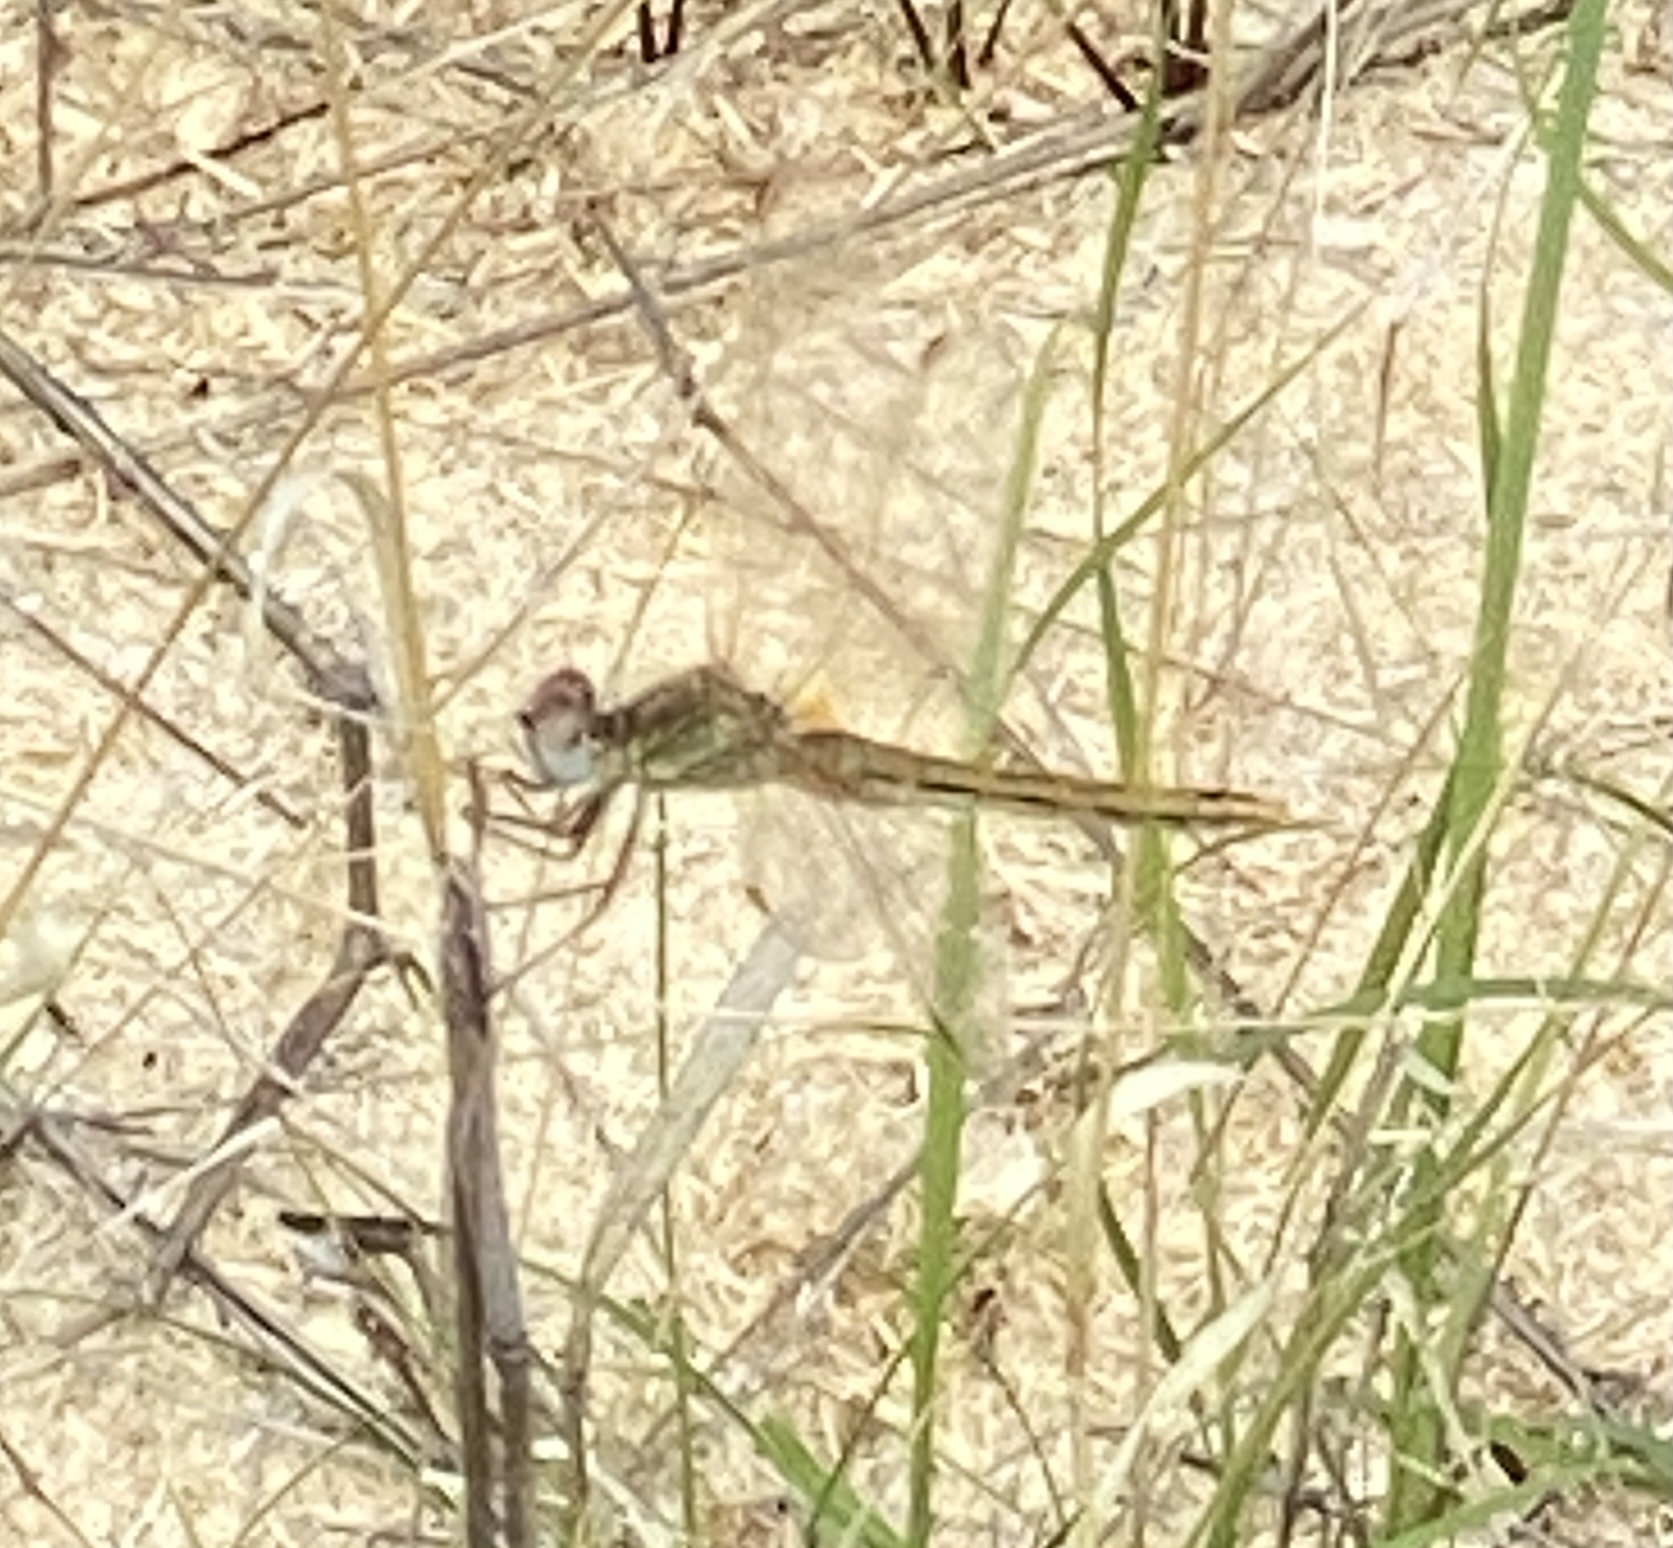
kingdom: Animalia
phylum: Arthropoda
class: Insecta
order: Odonata
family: Libellulidae
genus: Sympetrum
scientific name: Sympetrum fonscolombii
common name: Red-veined darter
